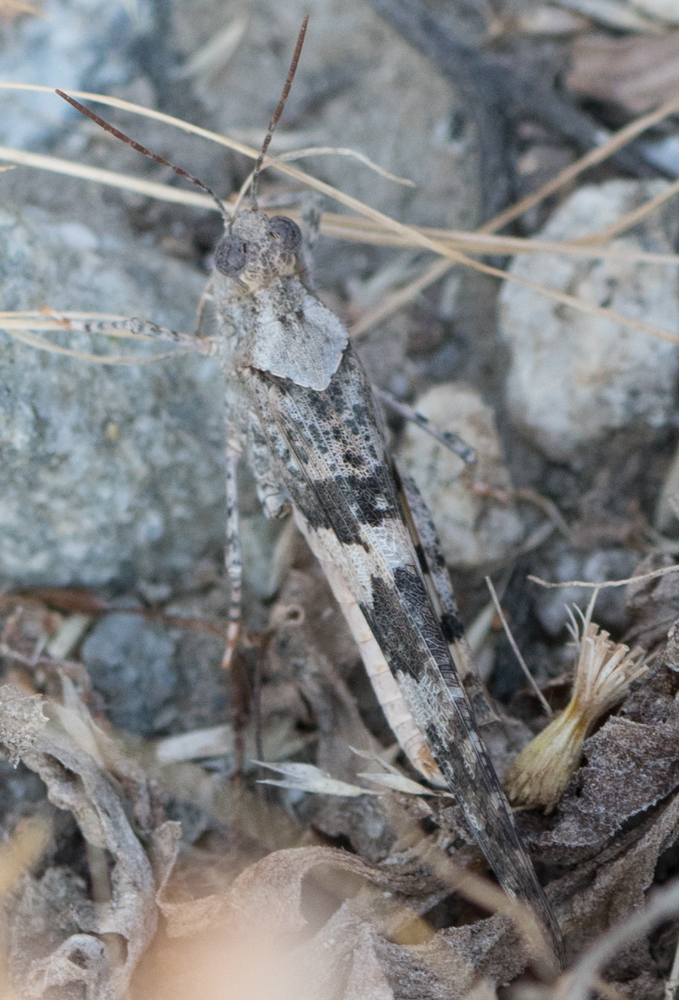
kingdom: Animalia
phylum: Arthropoda
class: Insecta
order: Orthoptera
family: Acrididae
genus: Trimerotropis
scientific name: Trimerotropis pallidipennis
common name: Pallid-winged grasshopper
